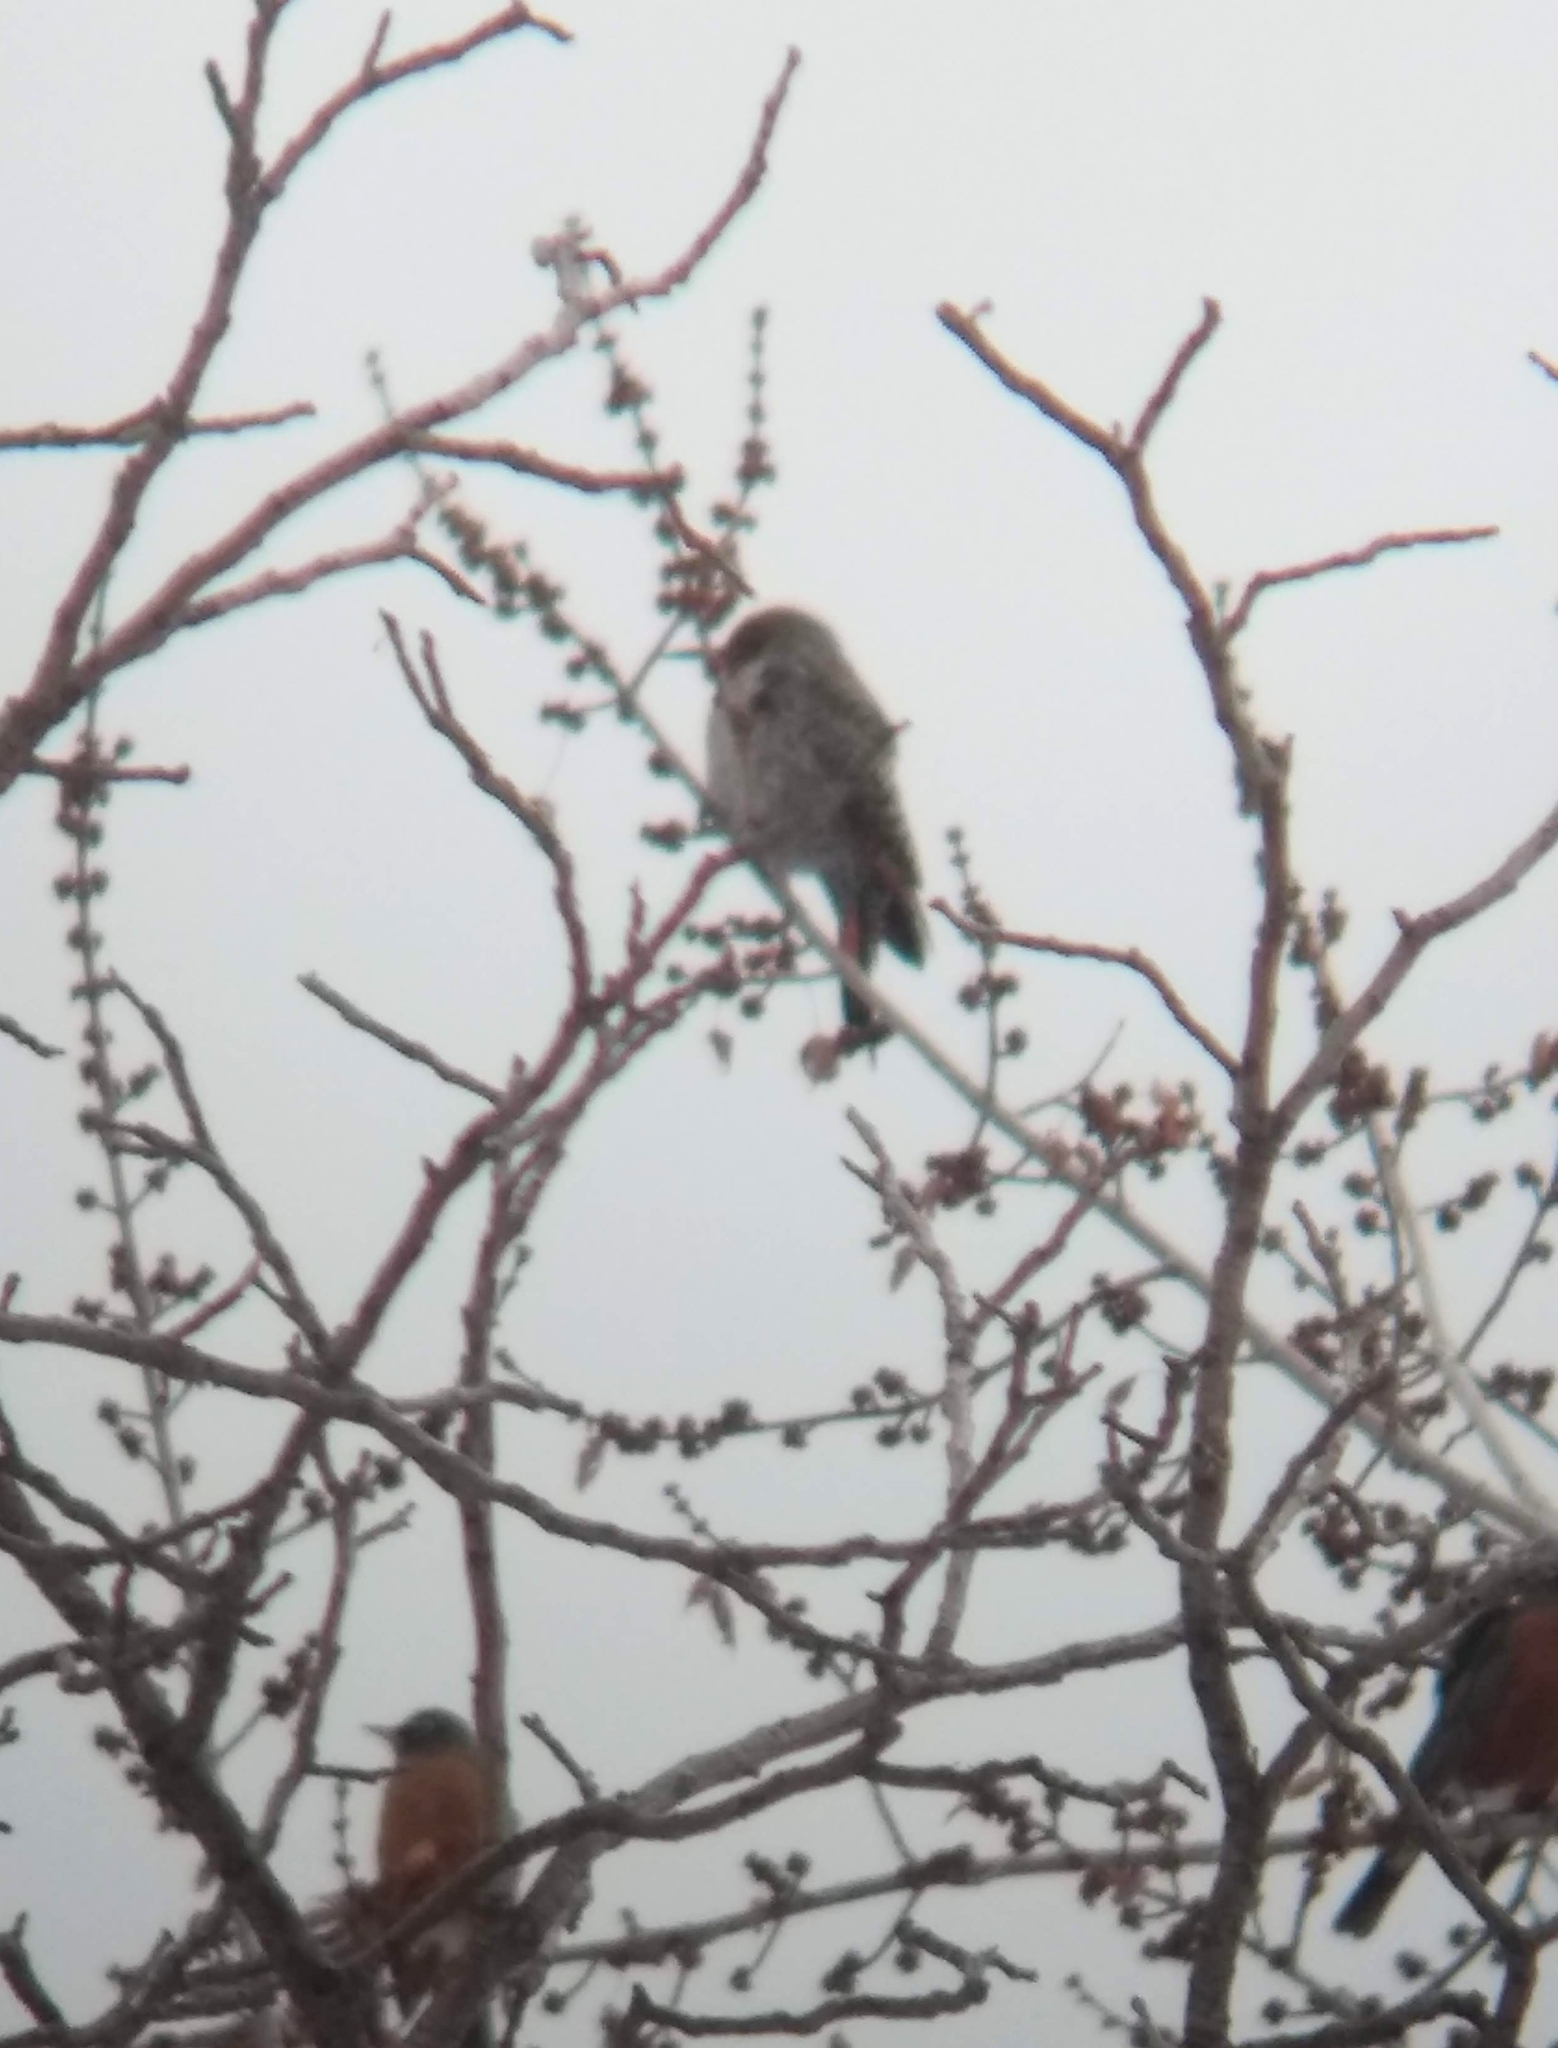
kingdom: Animalia
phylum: Chordata
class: Aves
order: Piciformes
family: Picidae
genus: Colaptes
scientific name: Colaptes auratus
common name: Northern flicker
